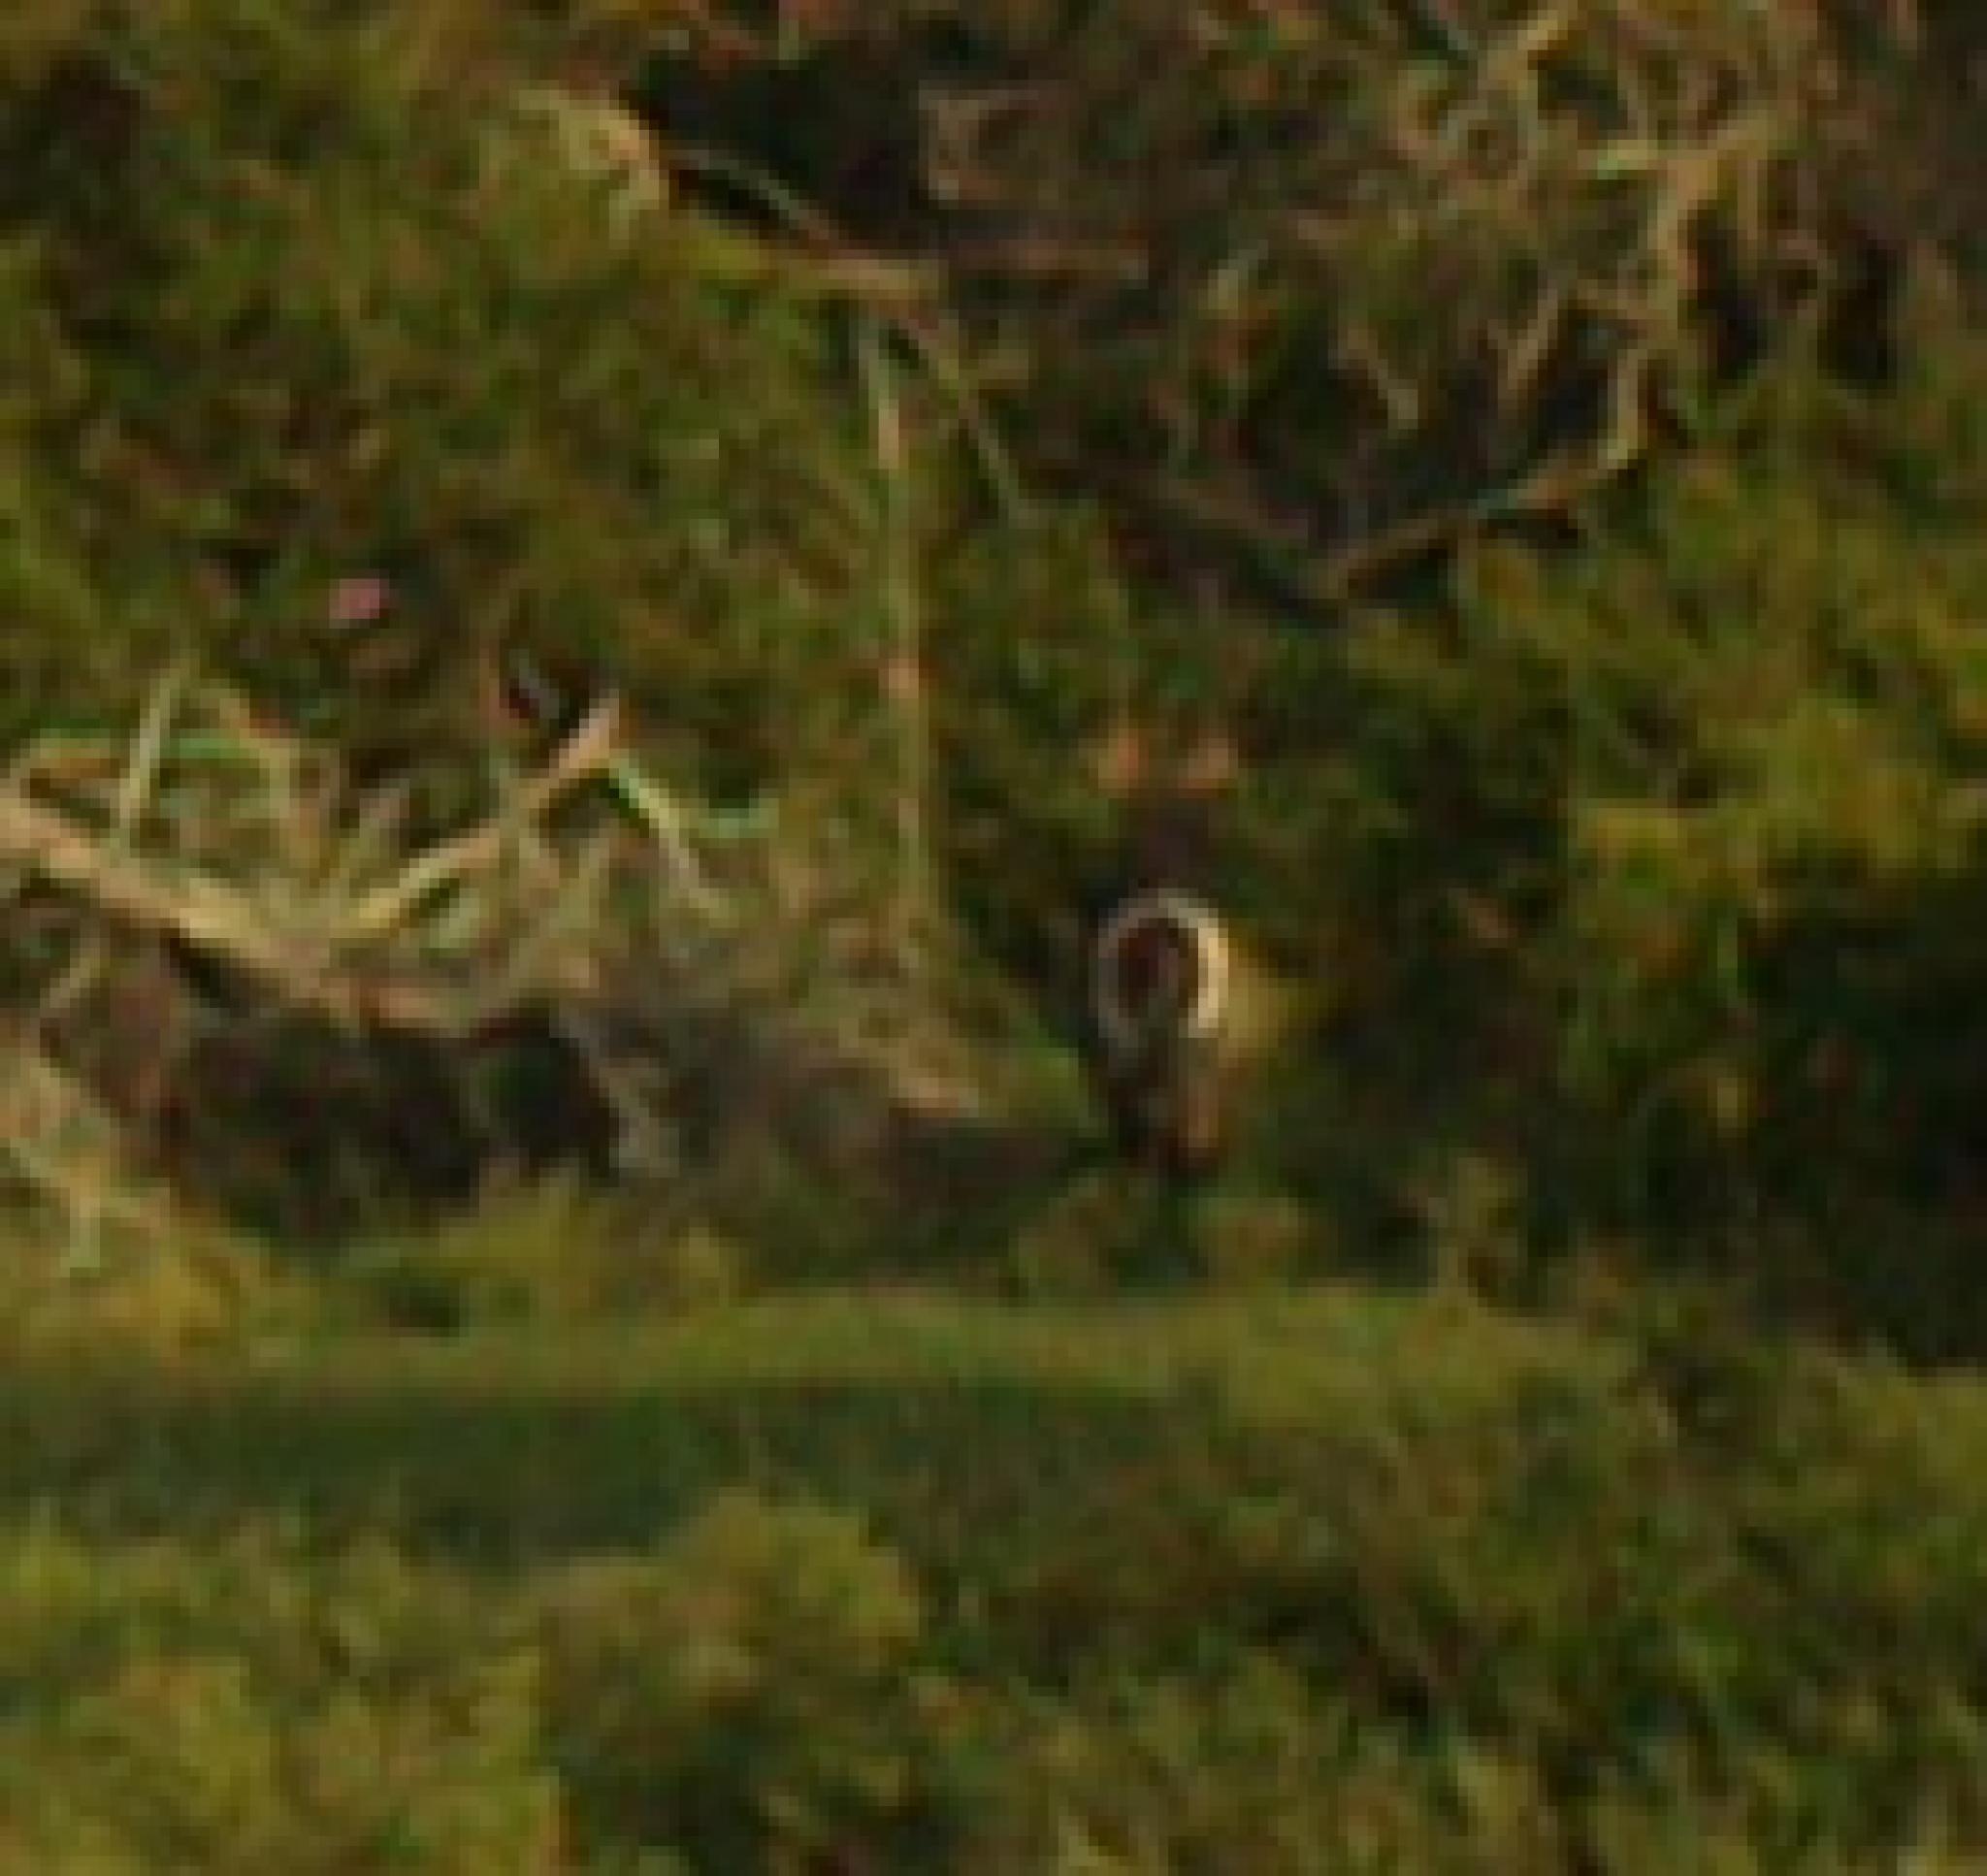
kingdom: Animalia
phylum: Chordata
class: Mammalia
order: Artiodactyla
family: Bovidae
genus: Kobus
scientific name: Kobus ellipsiprymnus
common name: Waterbuck
